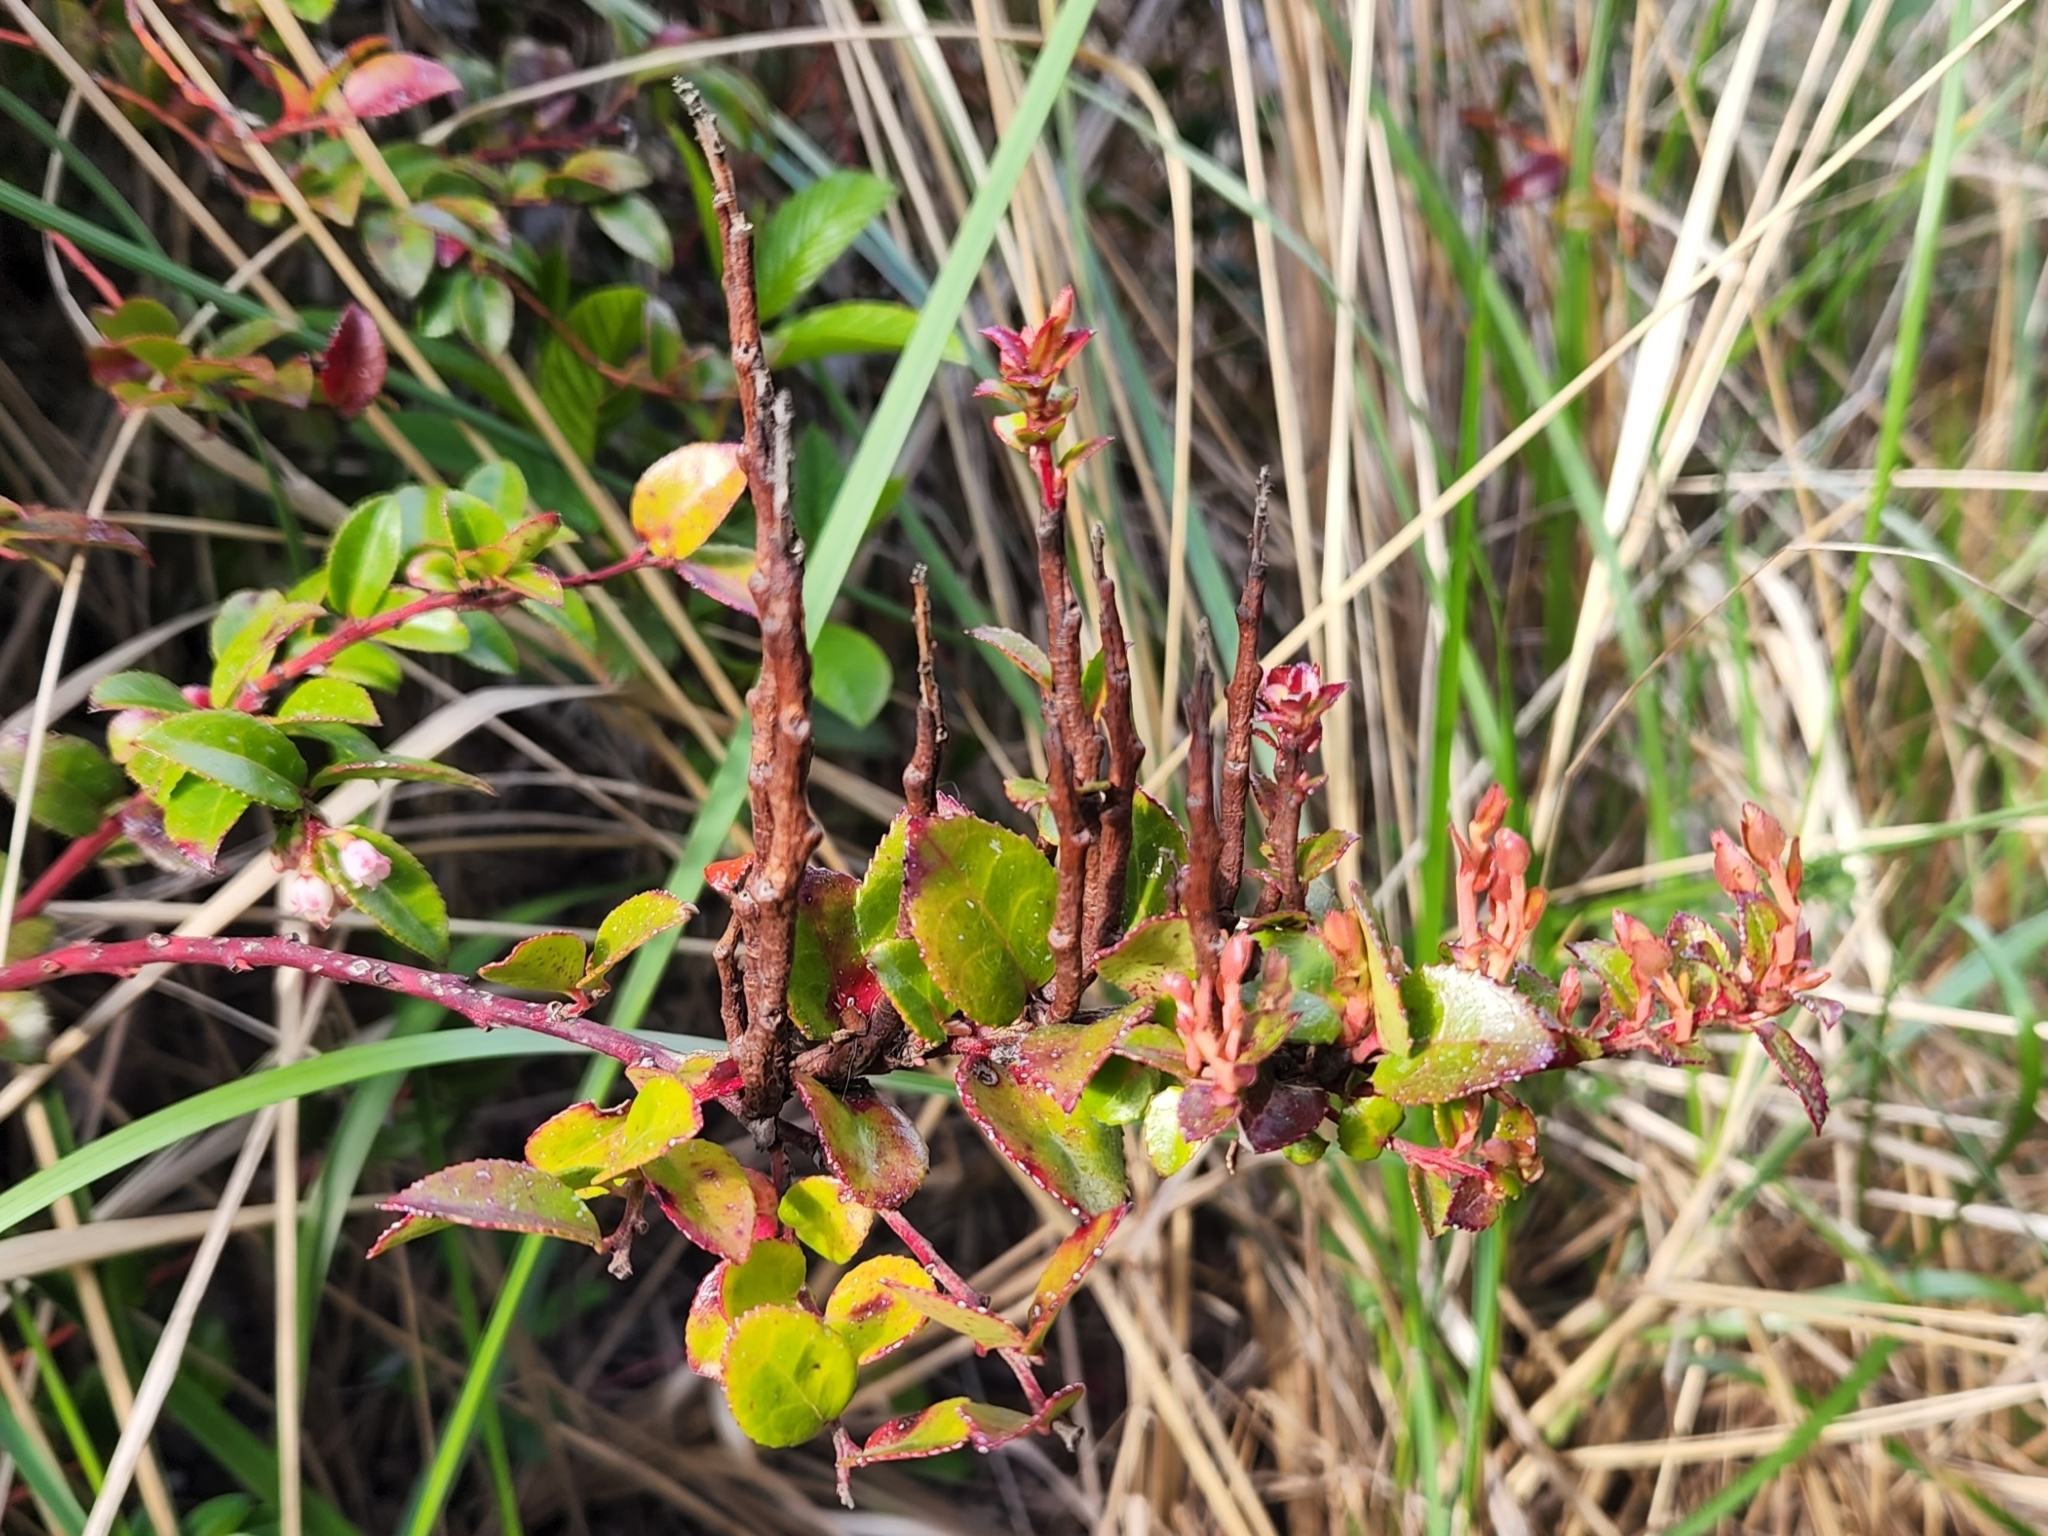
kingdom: Fungi
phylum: Basidiomycota
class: Pucciniomycetes
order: Pucciniales
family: Pucciniastraceae
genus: Calyptospora
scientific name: Calyptospora
